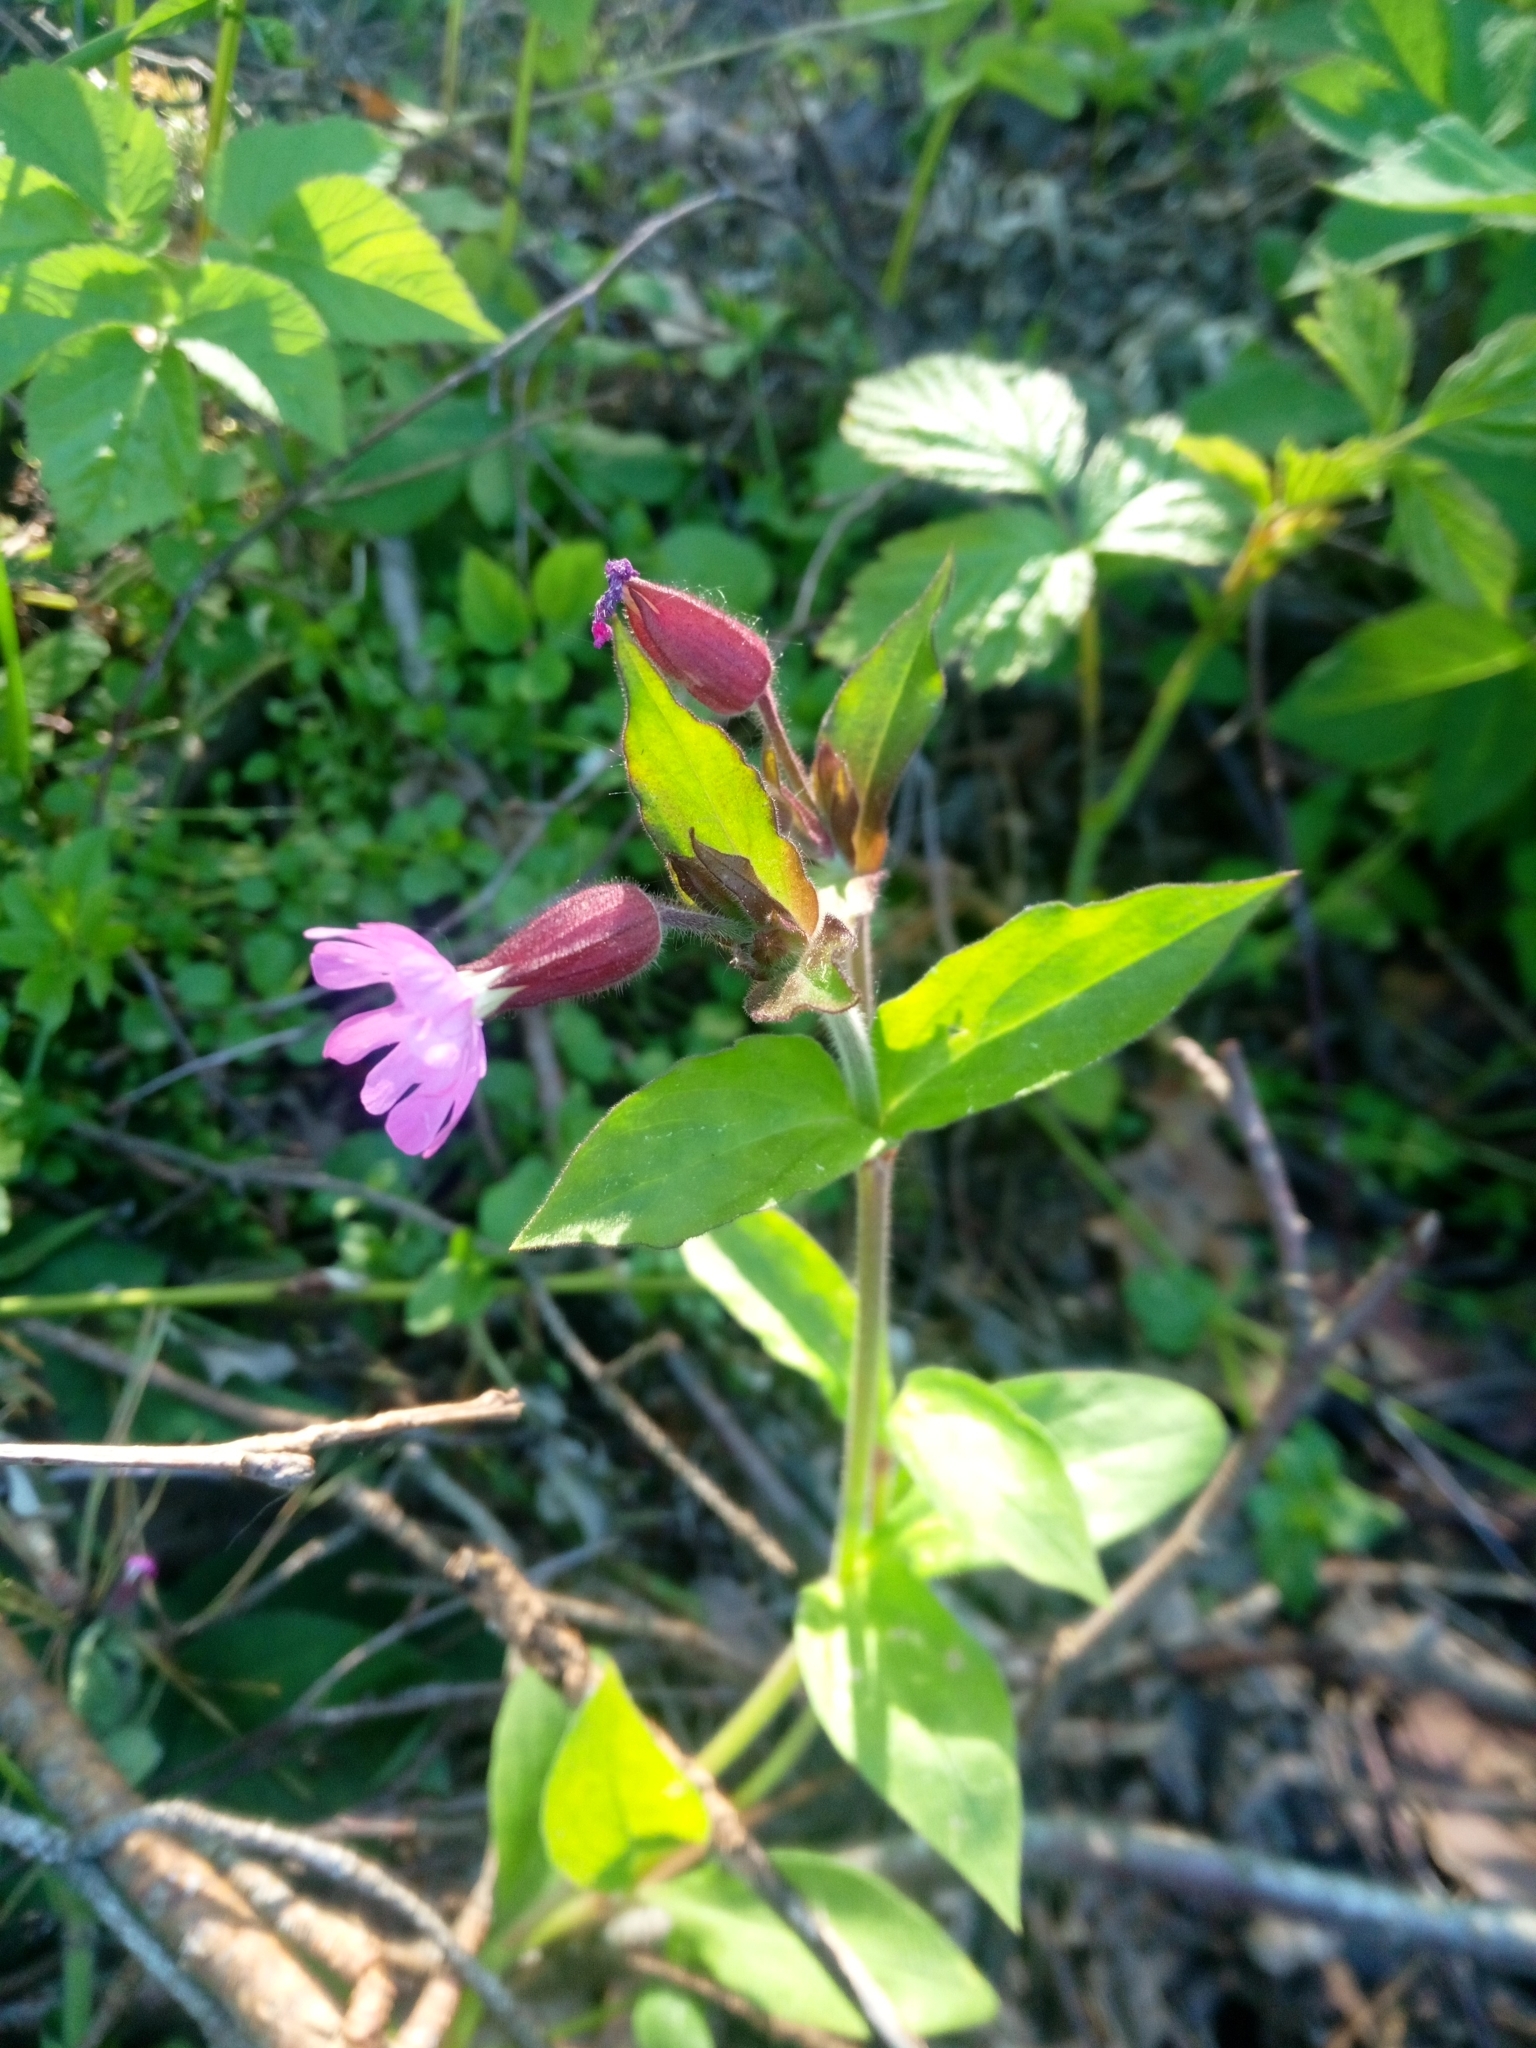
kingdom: Plantae
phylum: Tracheophyta
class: Magnoliopsida
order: Caryophyllales
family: Caryophyllaceae
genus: Silene
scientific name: Silene dioica
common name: Red campion
